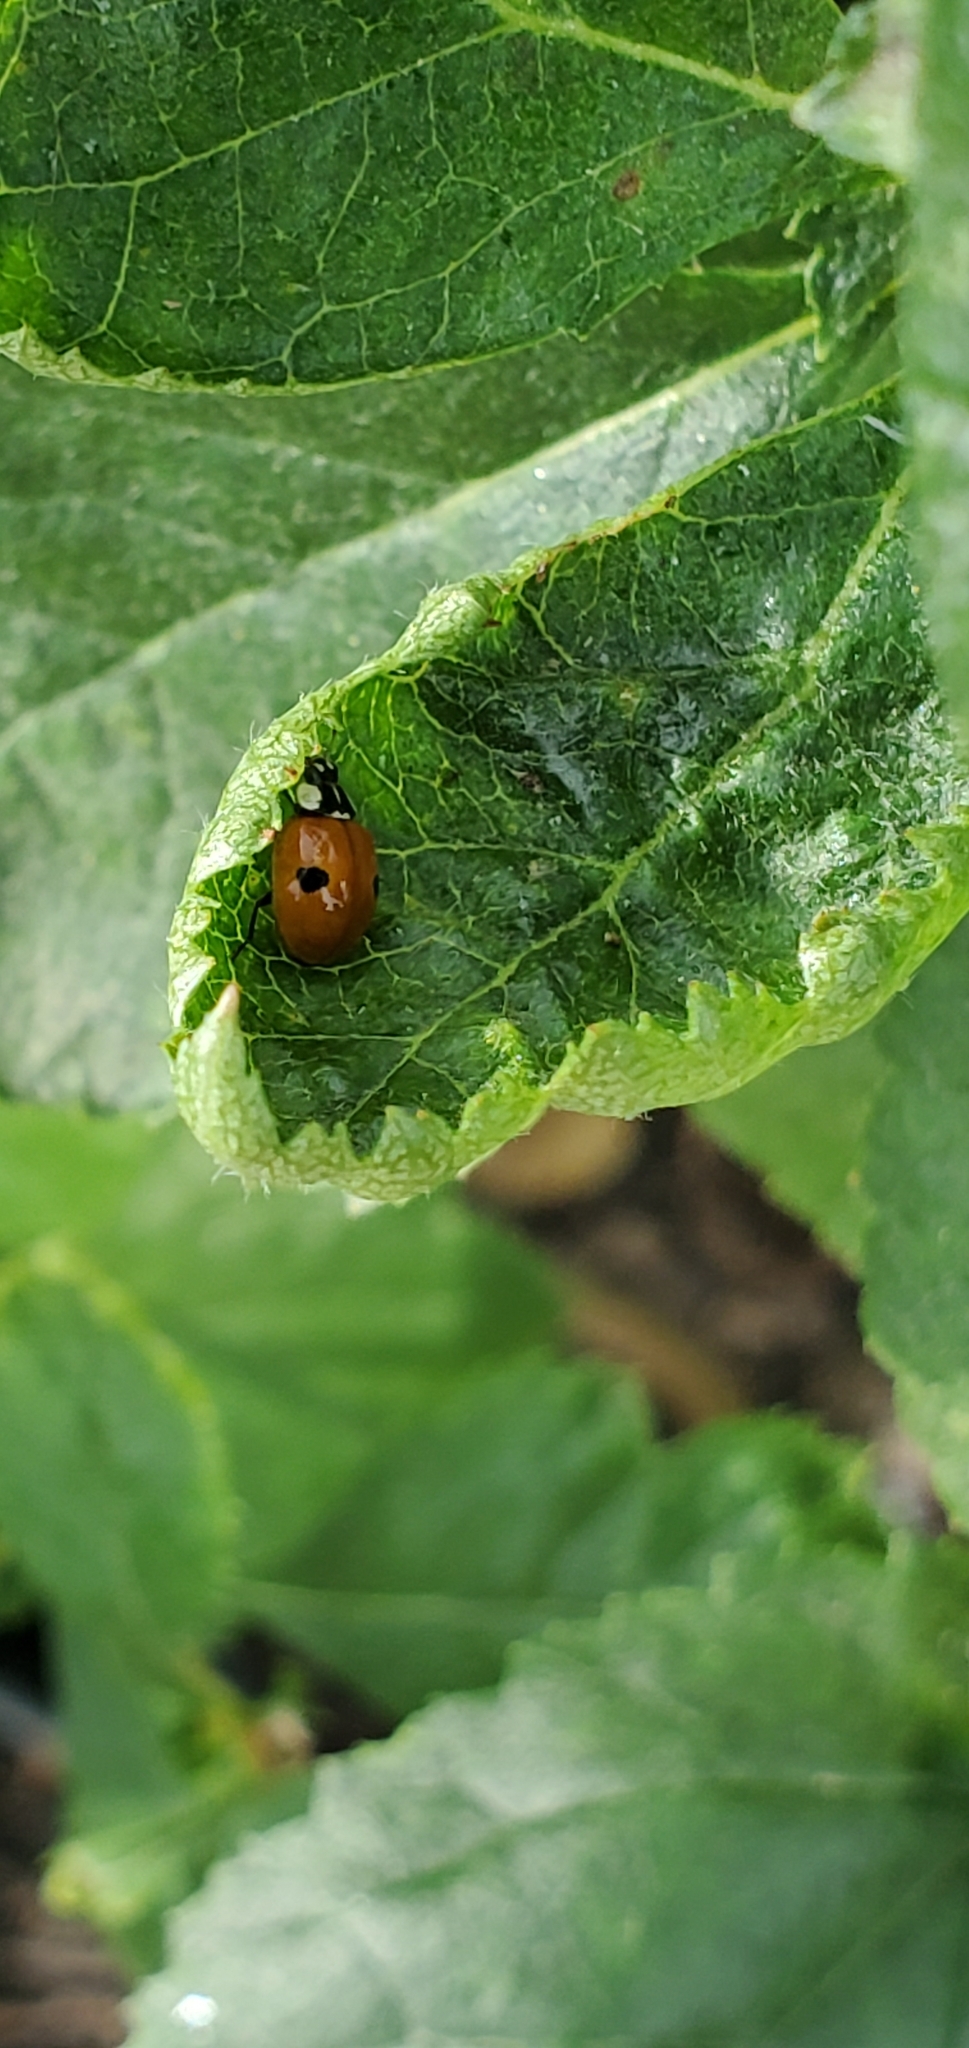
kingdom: Animalia
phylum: Arthropoda
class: Insecta
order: Coleoptera
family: Coccinellidae
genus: Adalia
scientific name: Adalia bipunctata
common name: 2-spot ladybird
